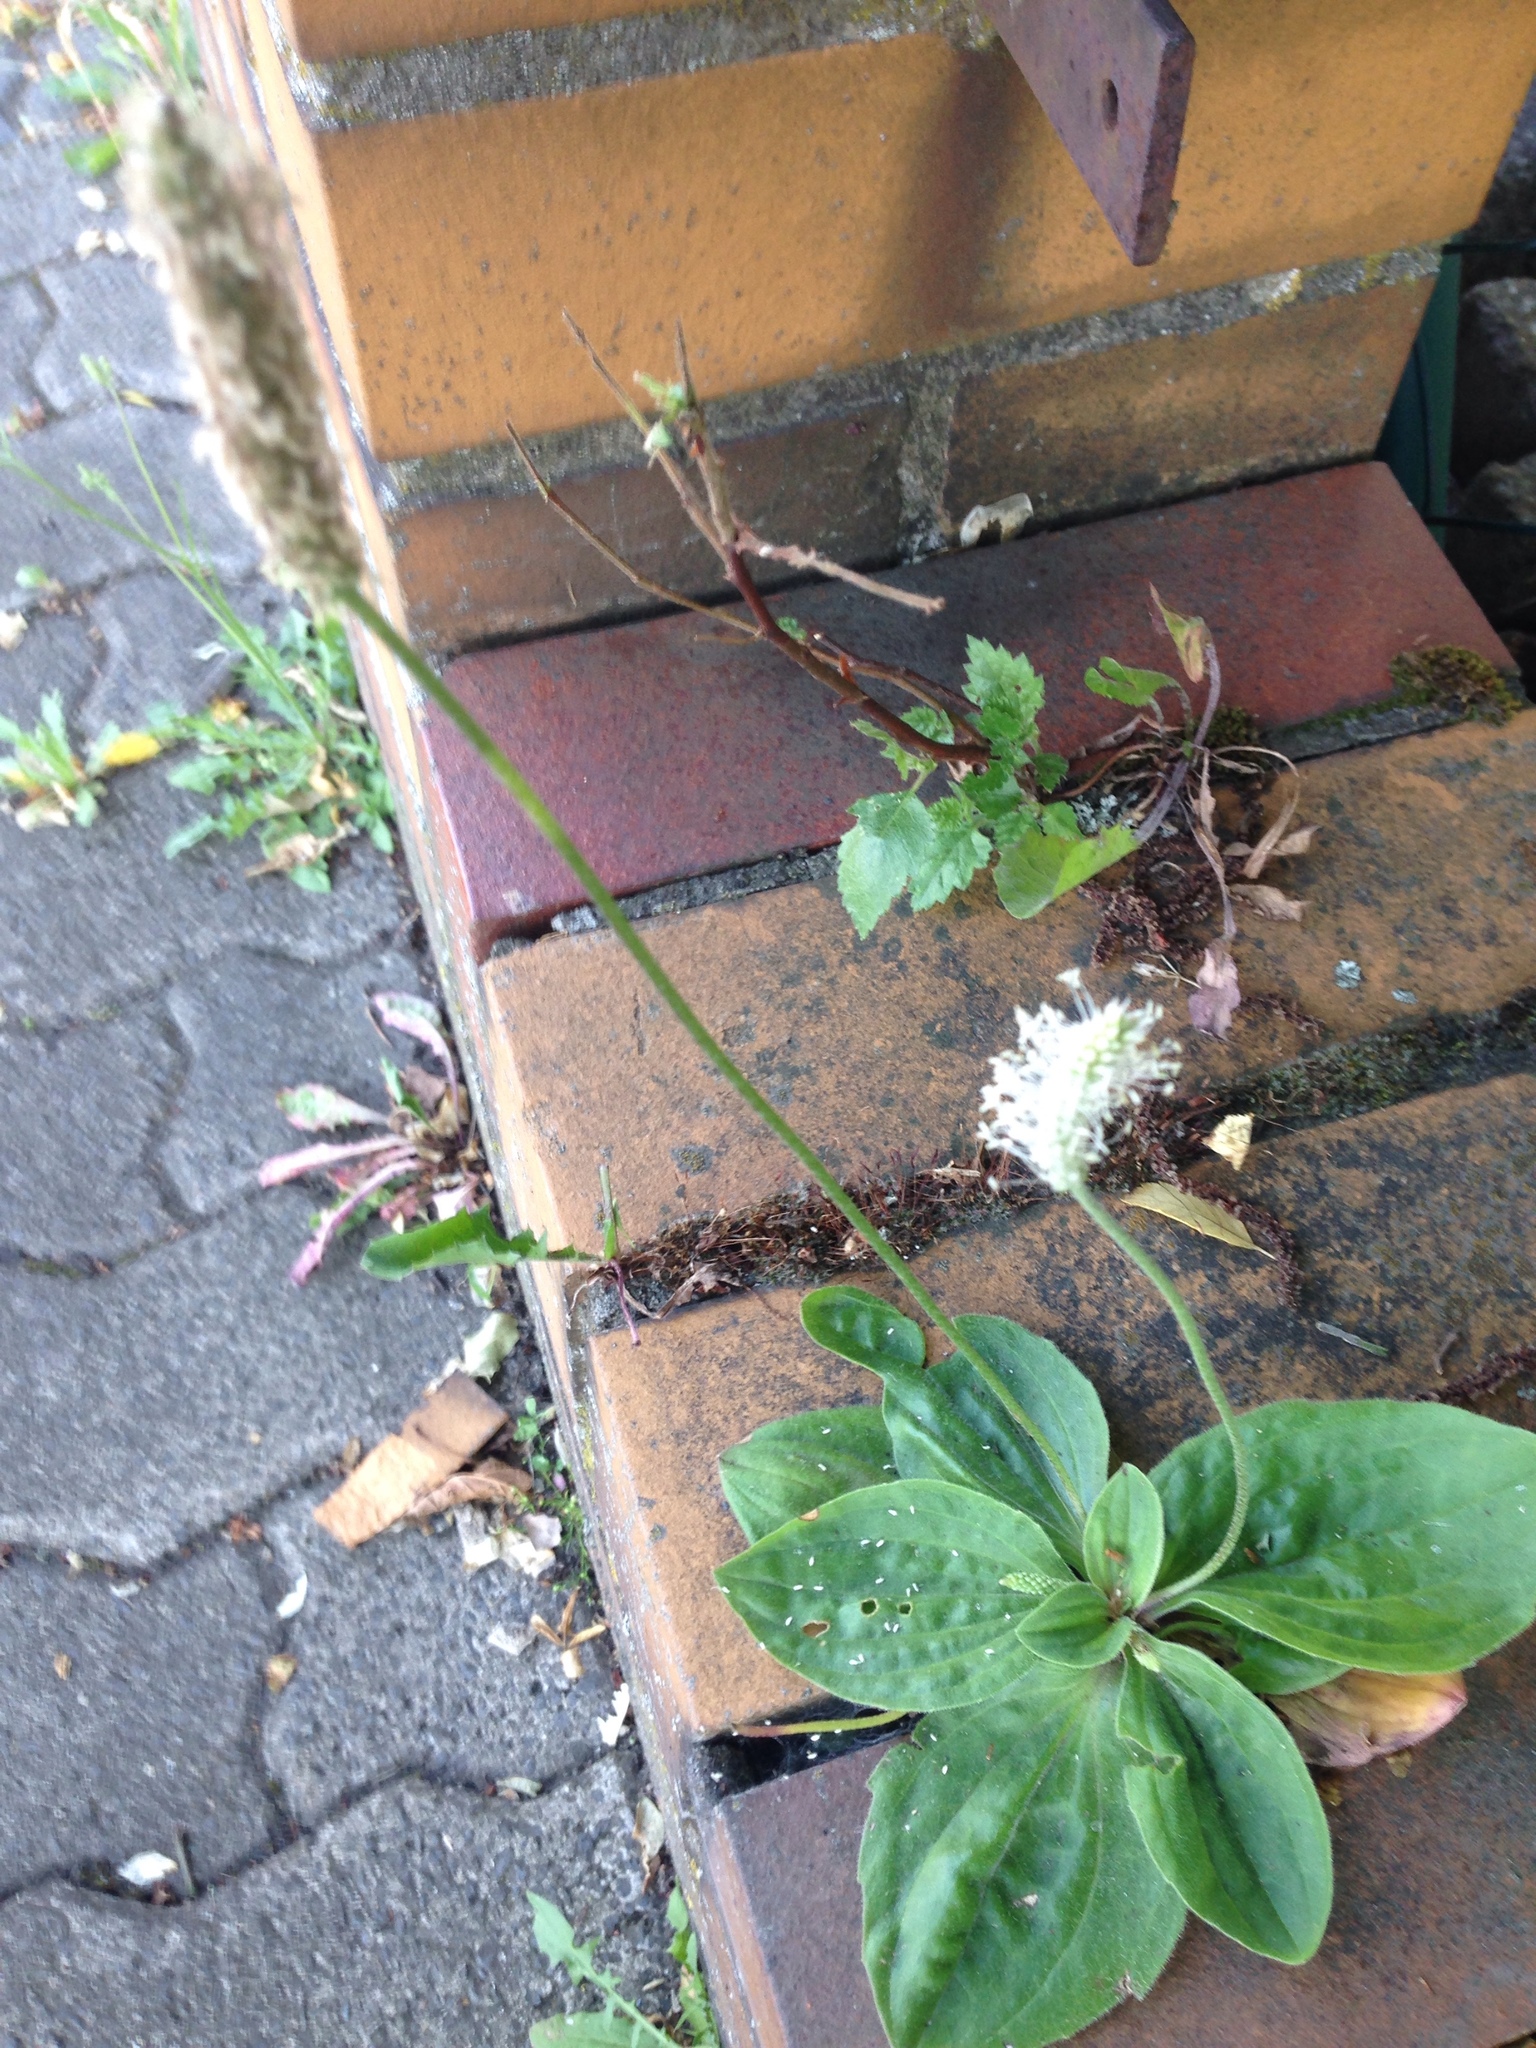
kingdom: Plantae
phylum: Tracheophyta
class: Magnoliopsida
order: Lamiales
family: Plantaginaceae
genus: Plantago
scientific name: Plantago media
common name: Hoary plantain
